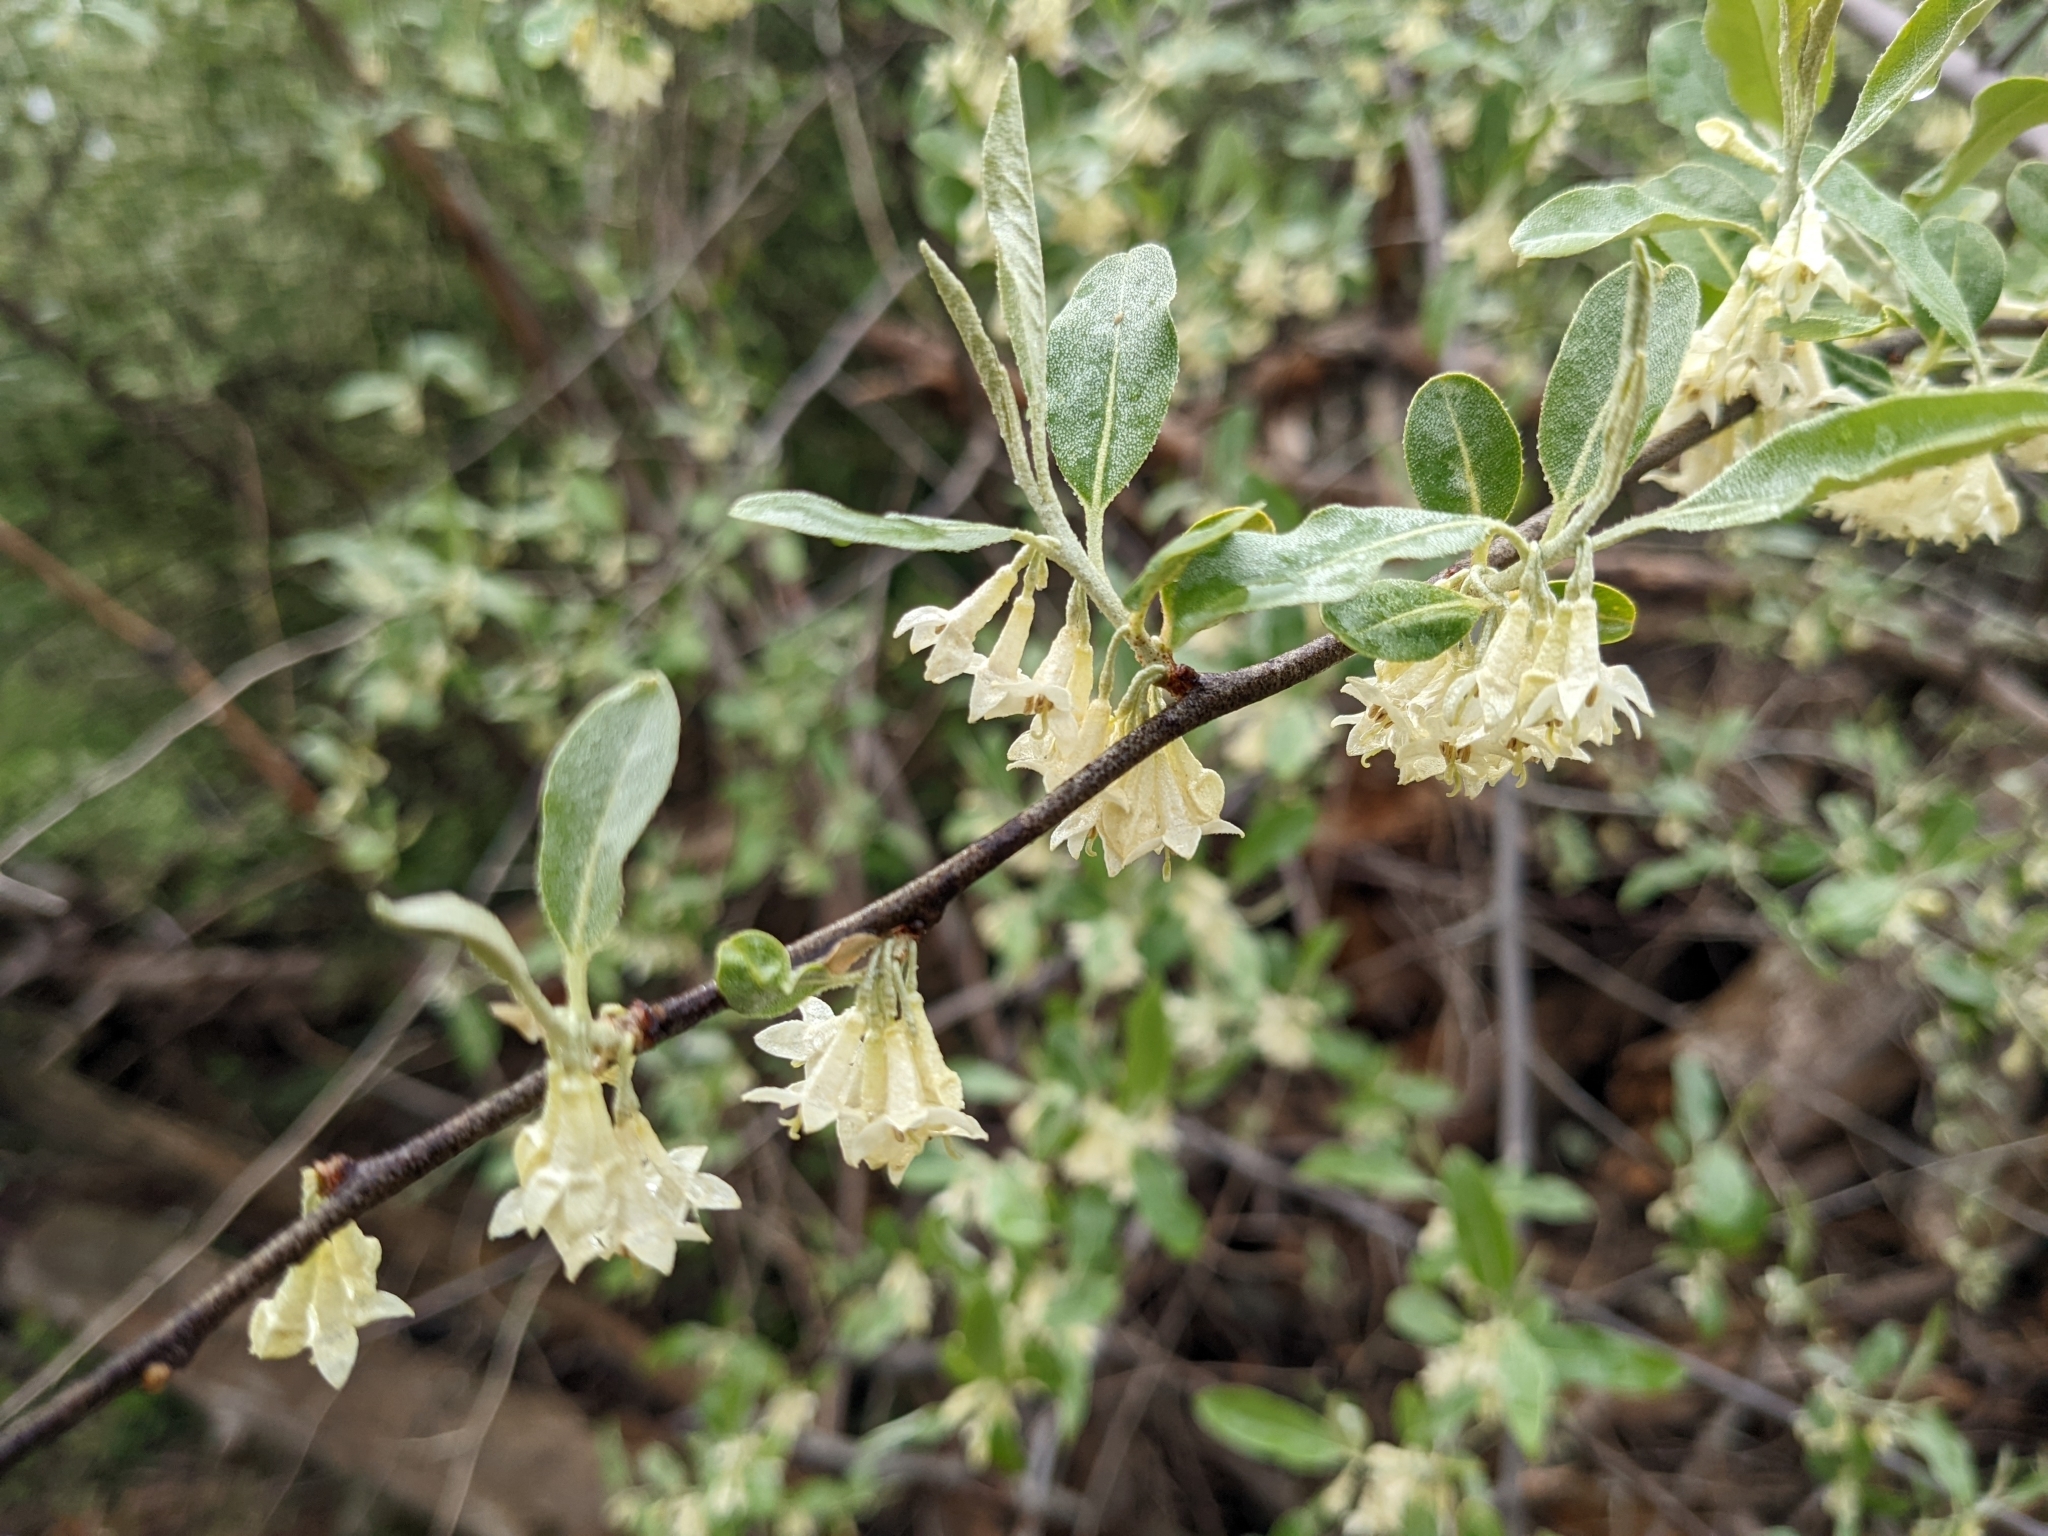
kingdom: Plantae
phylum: Tracheophyta
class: Magnoliopsida
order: Rosales
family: Elaeagnaceae
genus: Elaeagnus
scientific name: Elaeagnus umbellata
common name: Autumn olive
